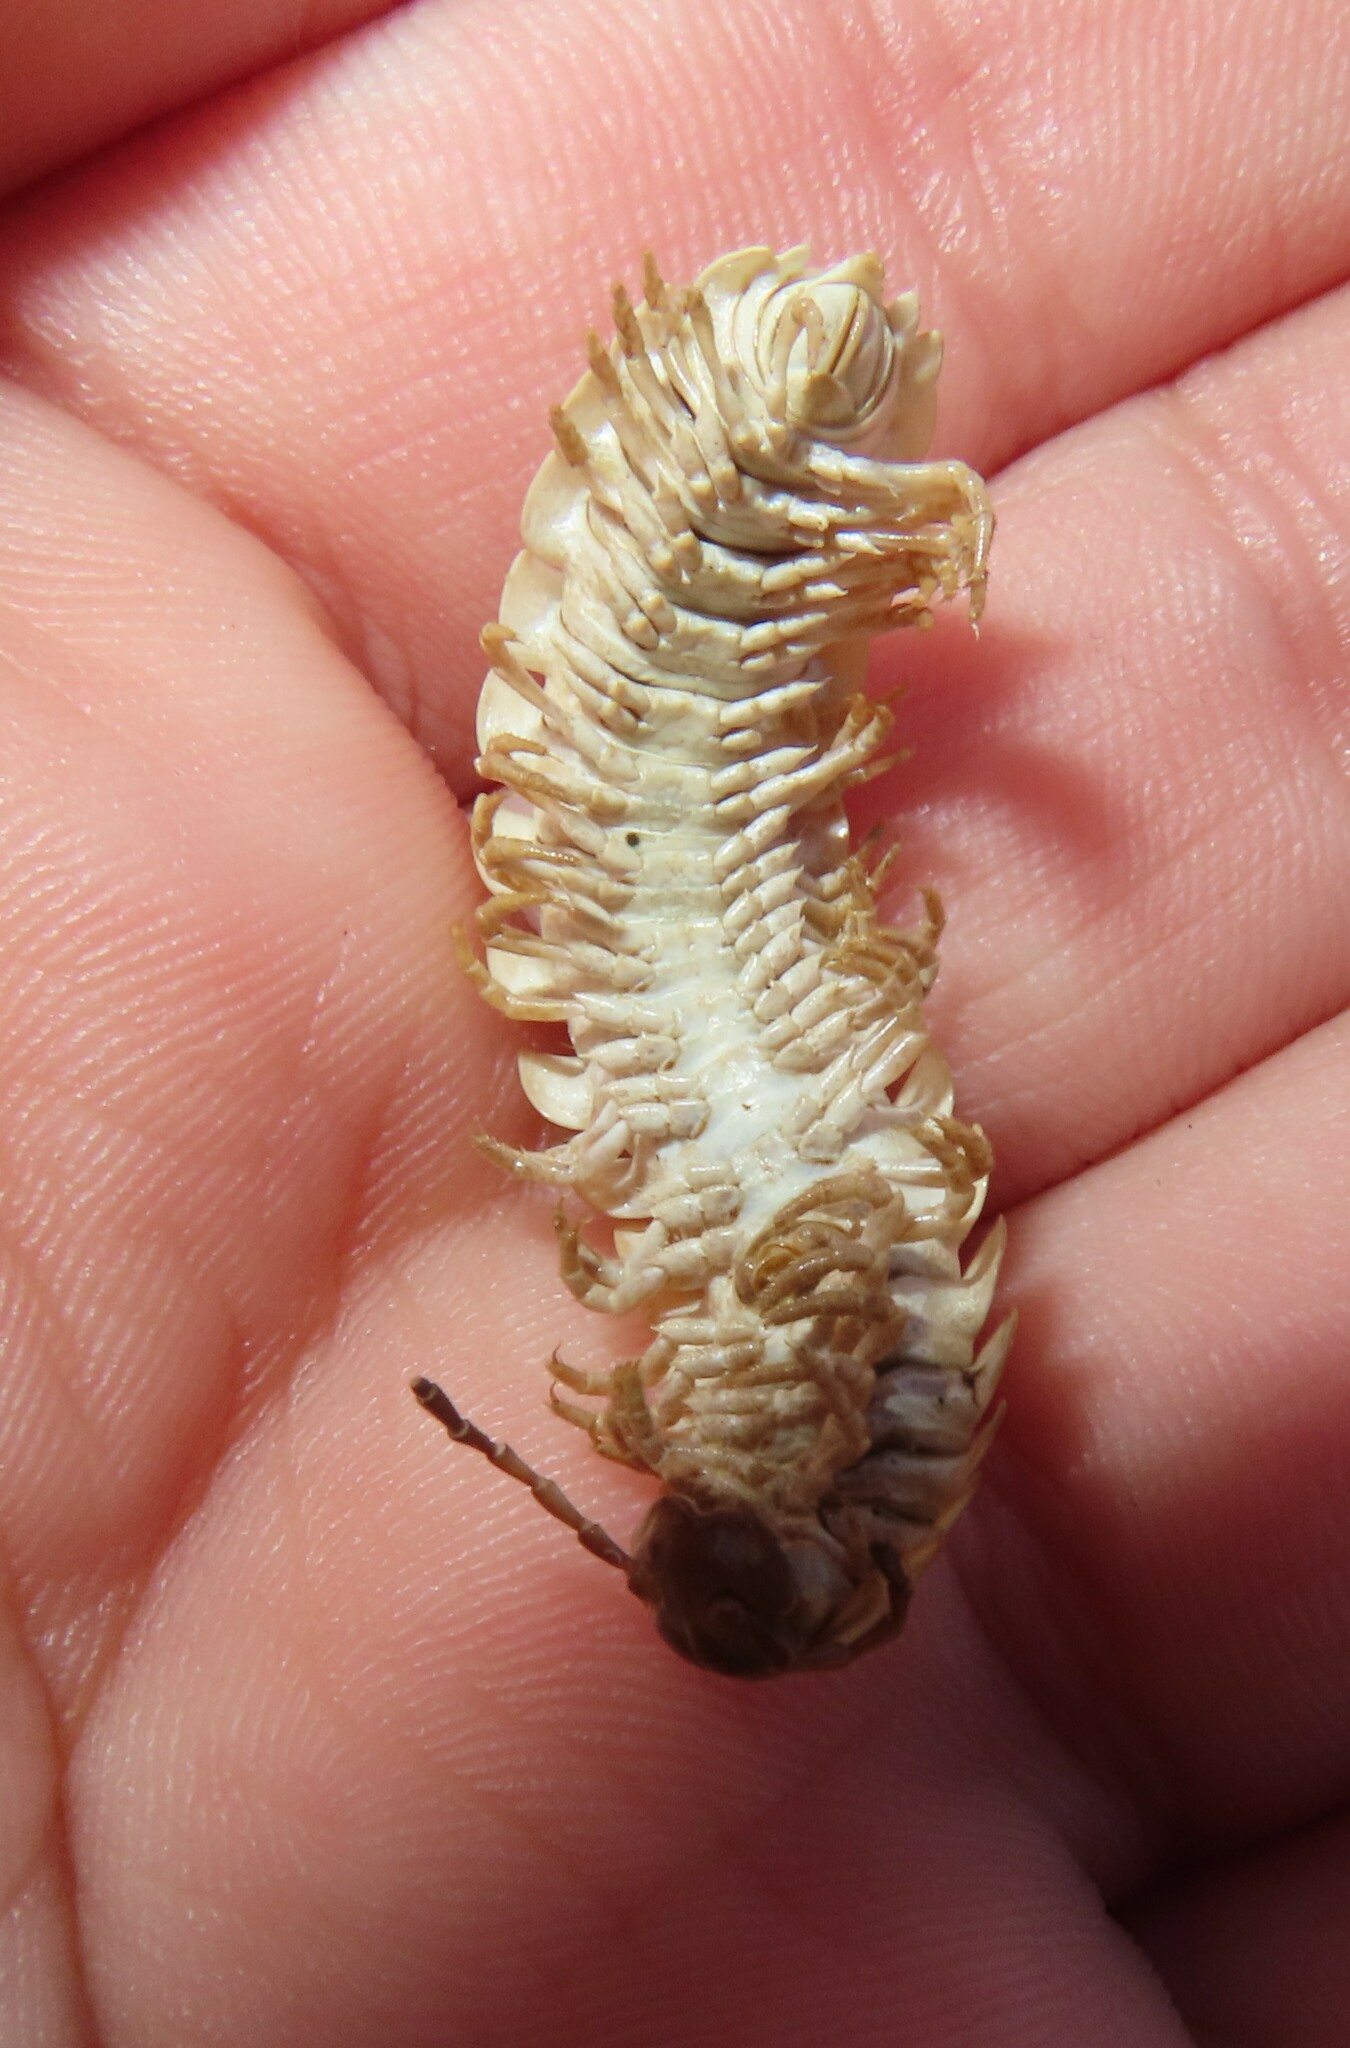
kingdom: Animalia
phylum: Arthropoda
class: Diplopoda
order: Polydesmida
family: Xystodesmidae
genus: Apheloria
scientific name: Apheloria virginiensis
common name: Black-and-gold flat millipede
